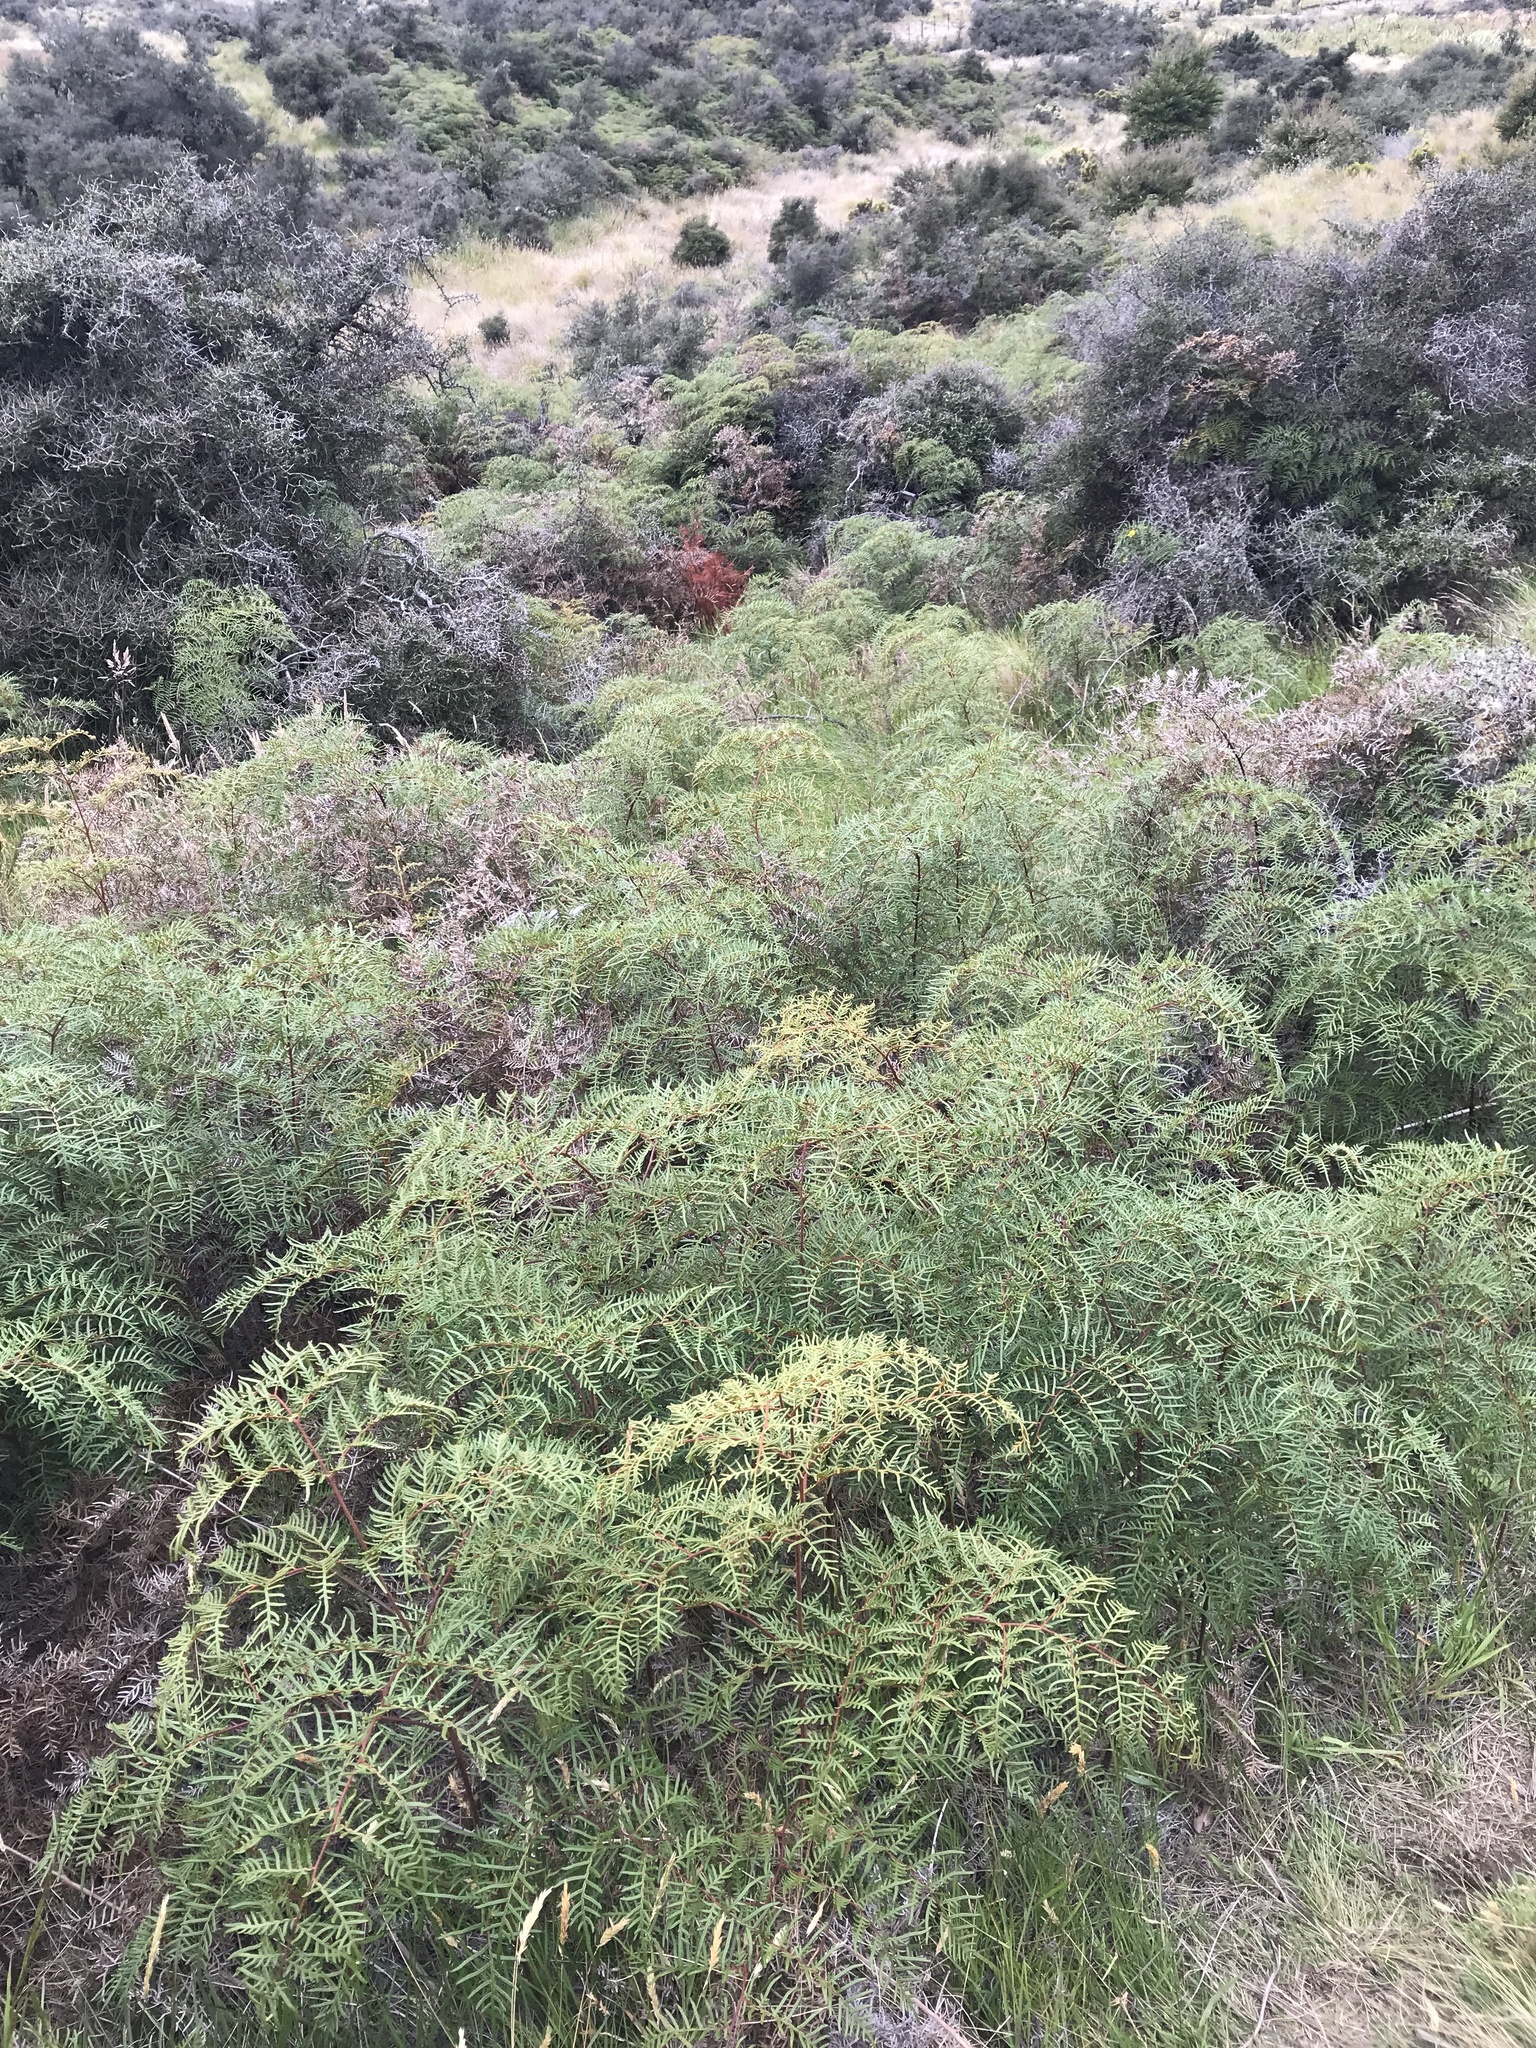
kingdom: Plantae
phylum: Tracheophyta
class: Polypodiopsida
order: Polypodiales
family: Dennstaedtiaceae
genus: Pteridium
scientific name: Pteridium esculentum
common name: Bracken fern
